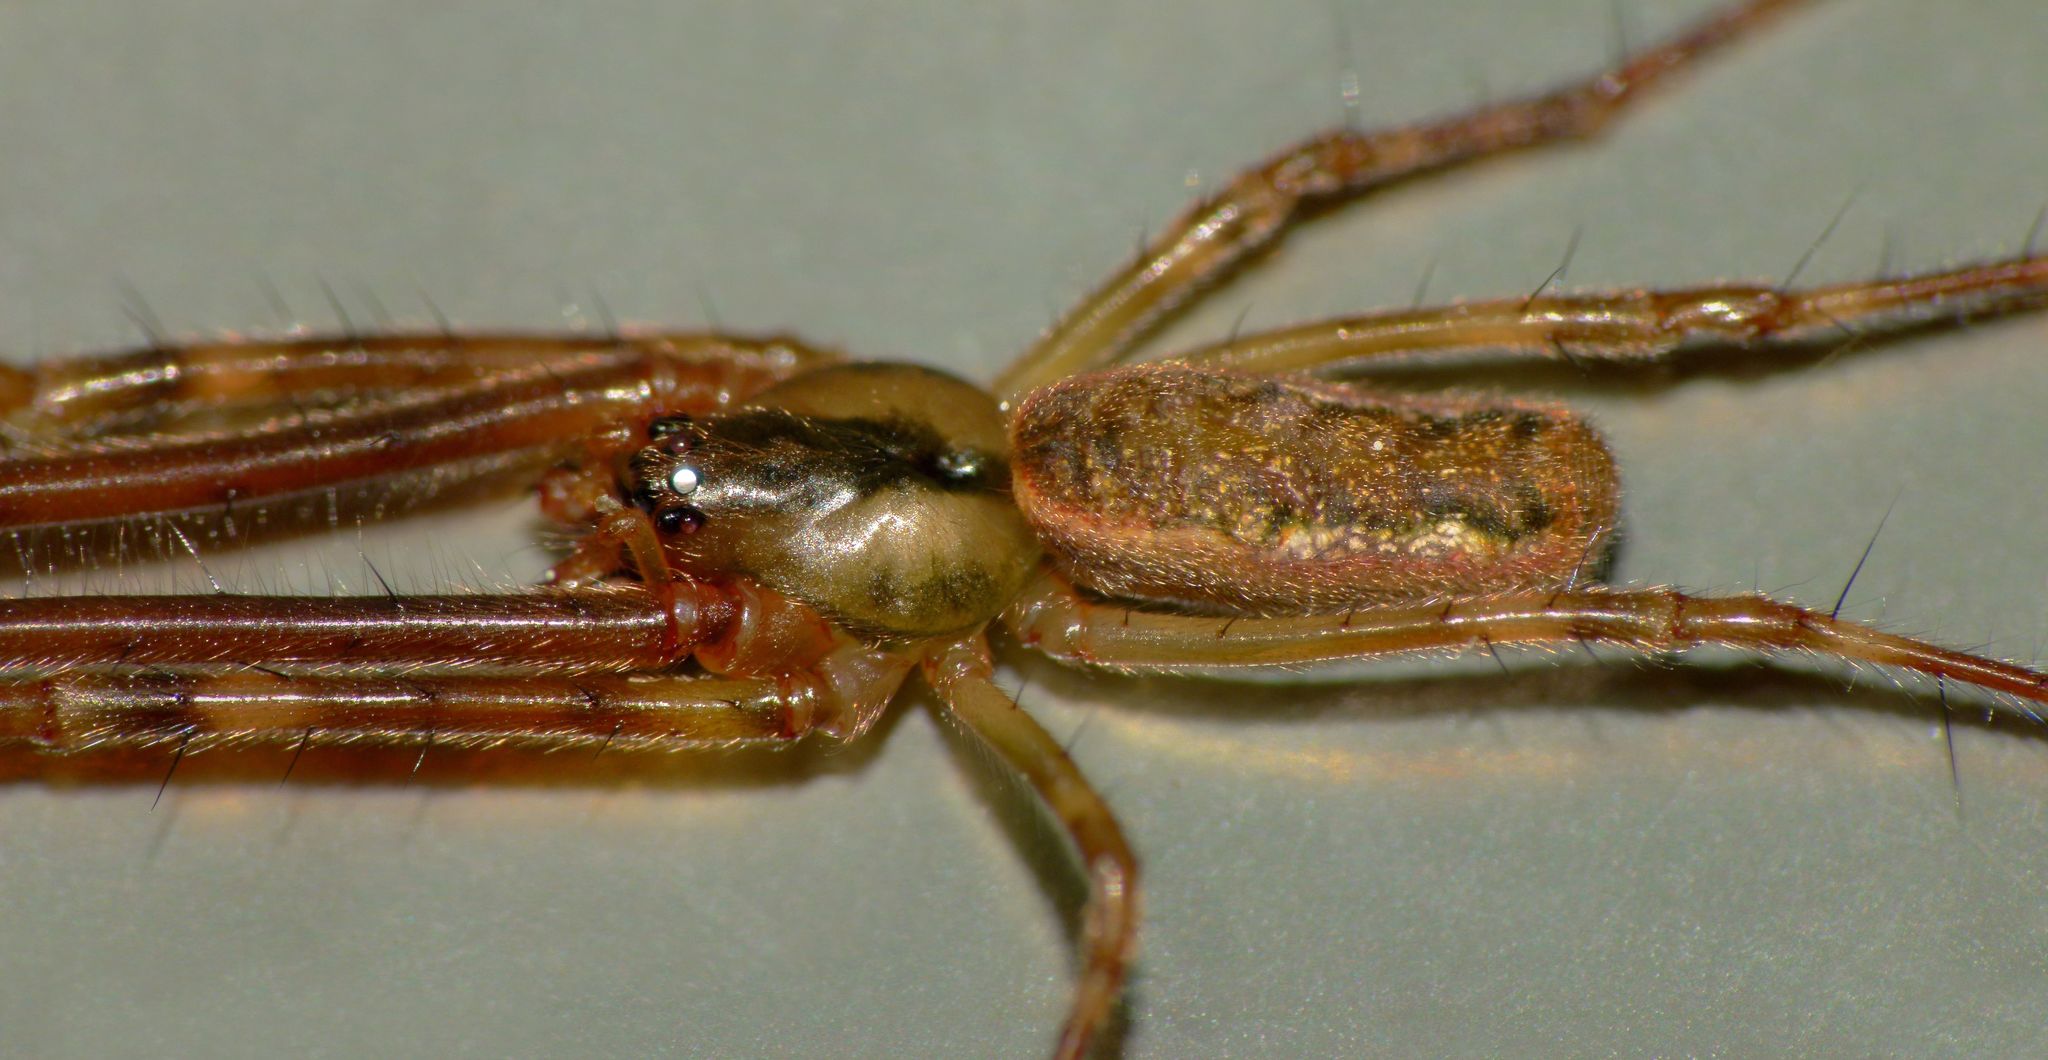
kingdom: Animalia
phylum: Arthropoda
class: Arachnida
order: Araneae
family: Tetragnathidae
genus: Nanometa
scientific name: Nanometa lagenifera
